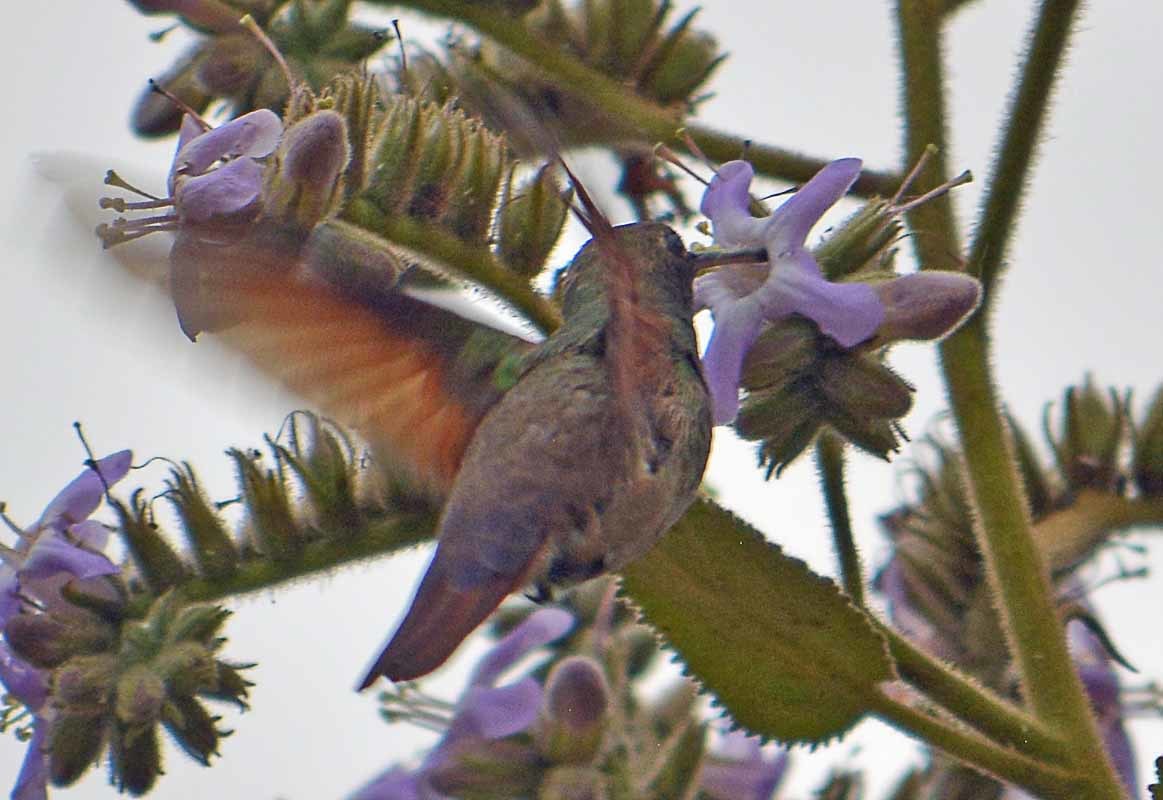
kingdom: Animalia
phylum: Chordata
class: Aves
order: Apodiformes
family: Trochilidae
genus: Saucerottia
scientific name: Saucerottia beryllina
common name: Berylline hummingbird
